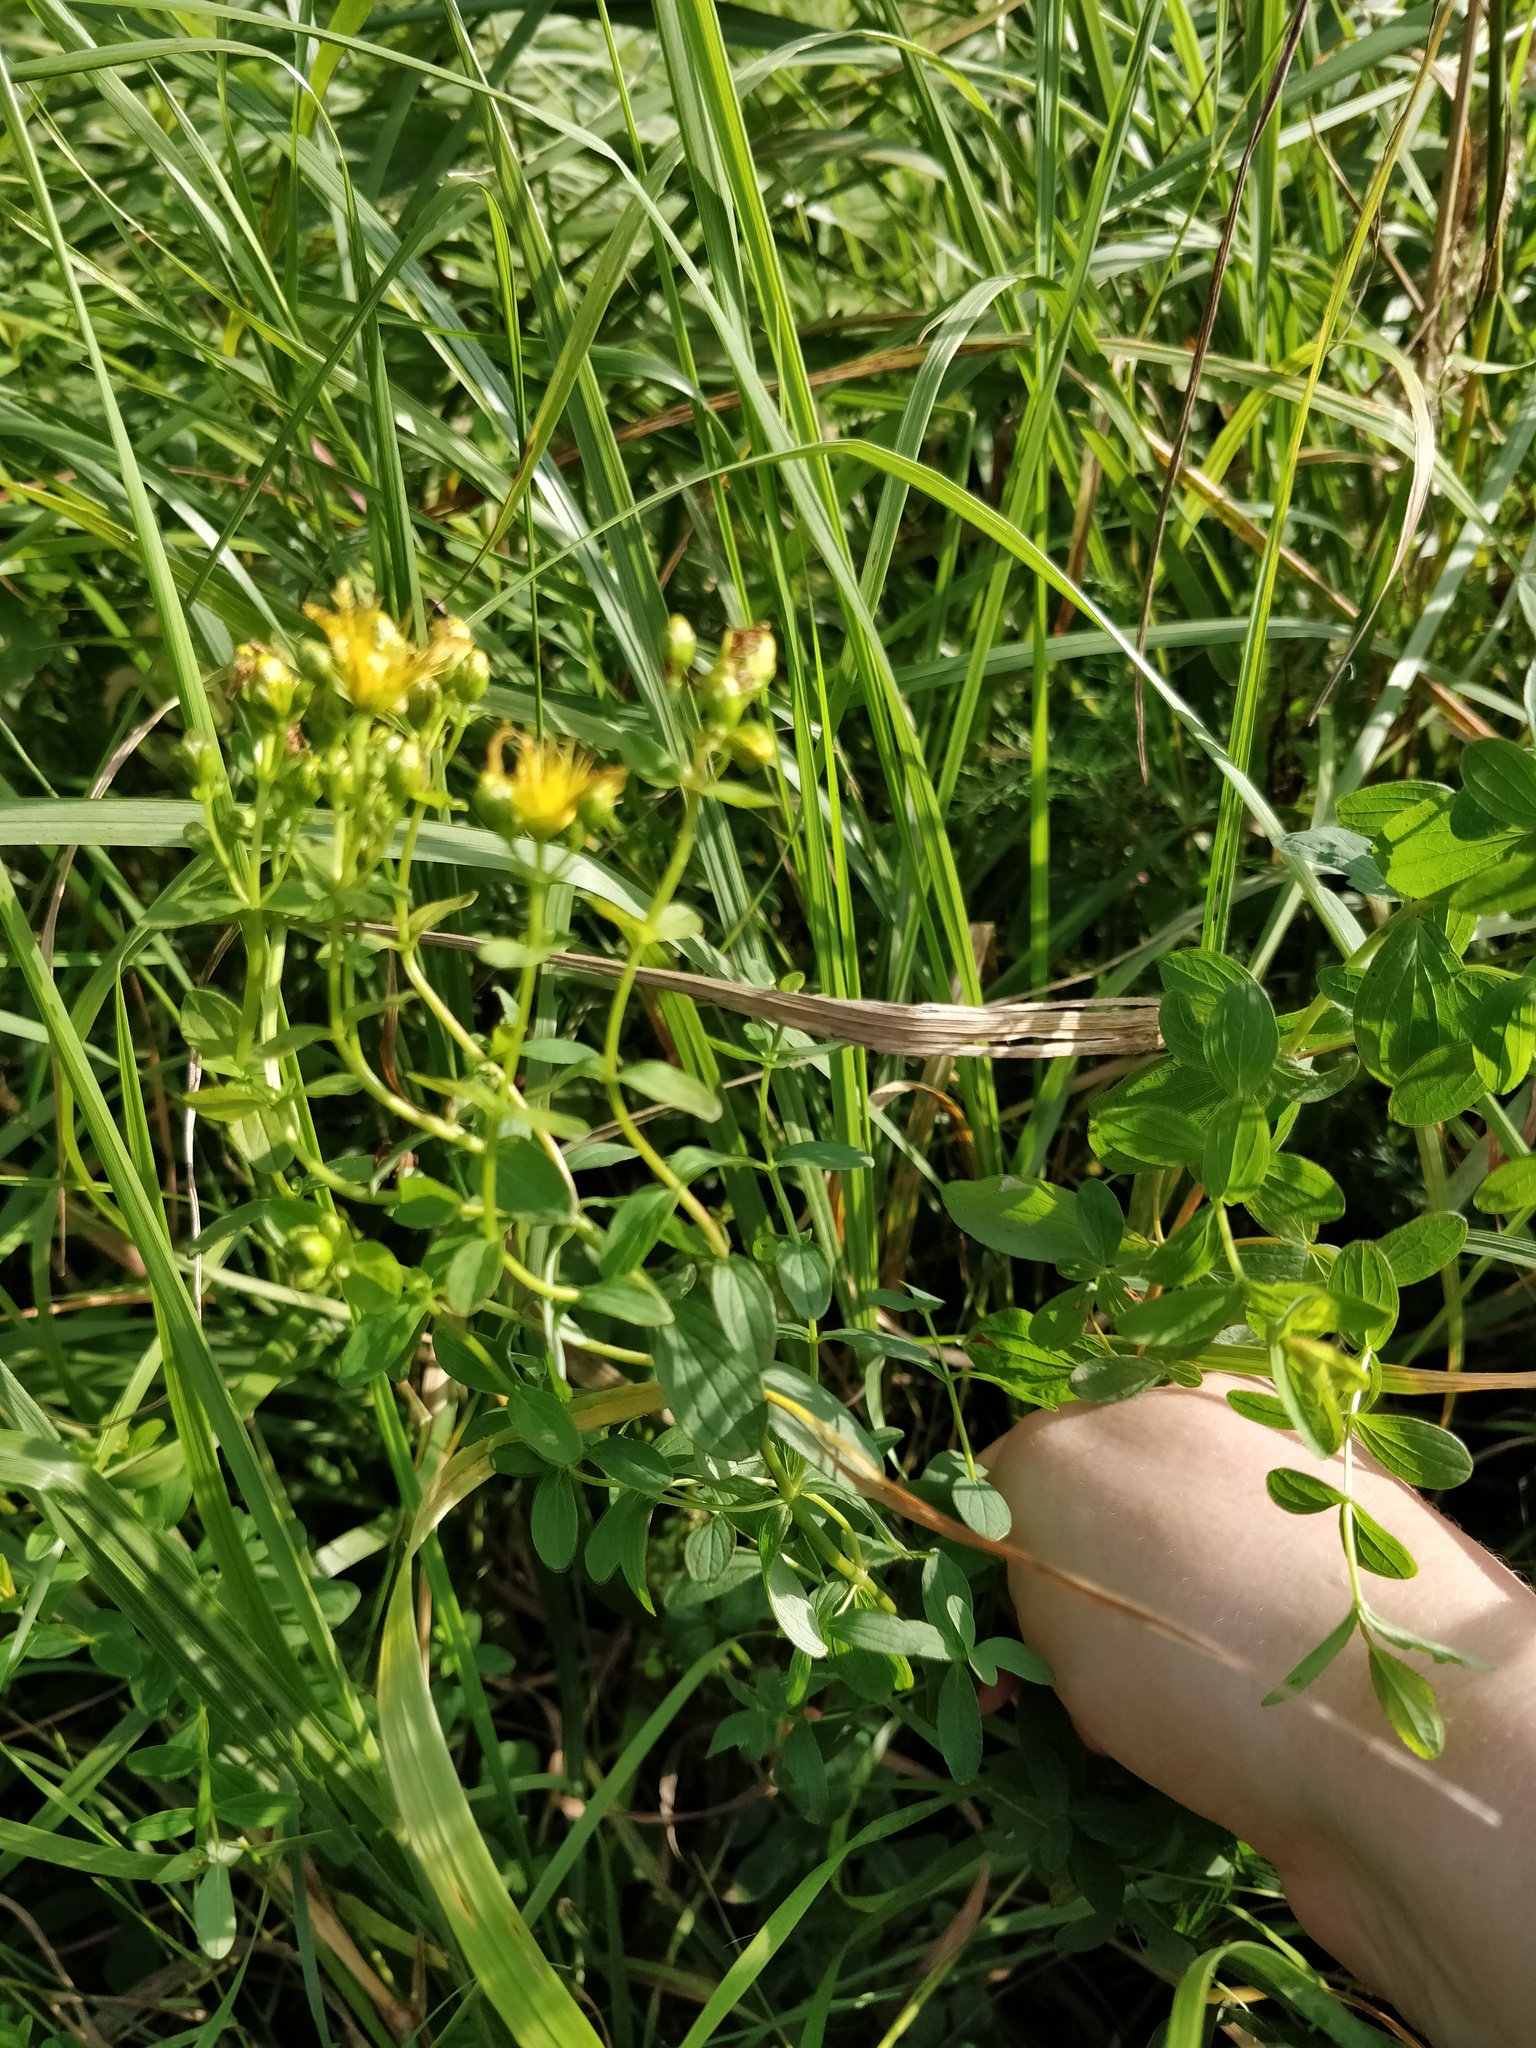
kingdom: Plantae
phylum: Tracheophyta
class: Magnoliopsida
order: Malpighiales
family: Hypericaceae
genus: Hypericum
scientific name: Hypericum maculatum
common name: Imperforate st. john's-wort
